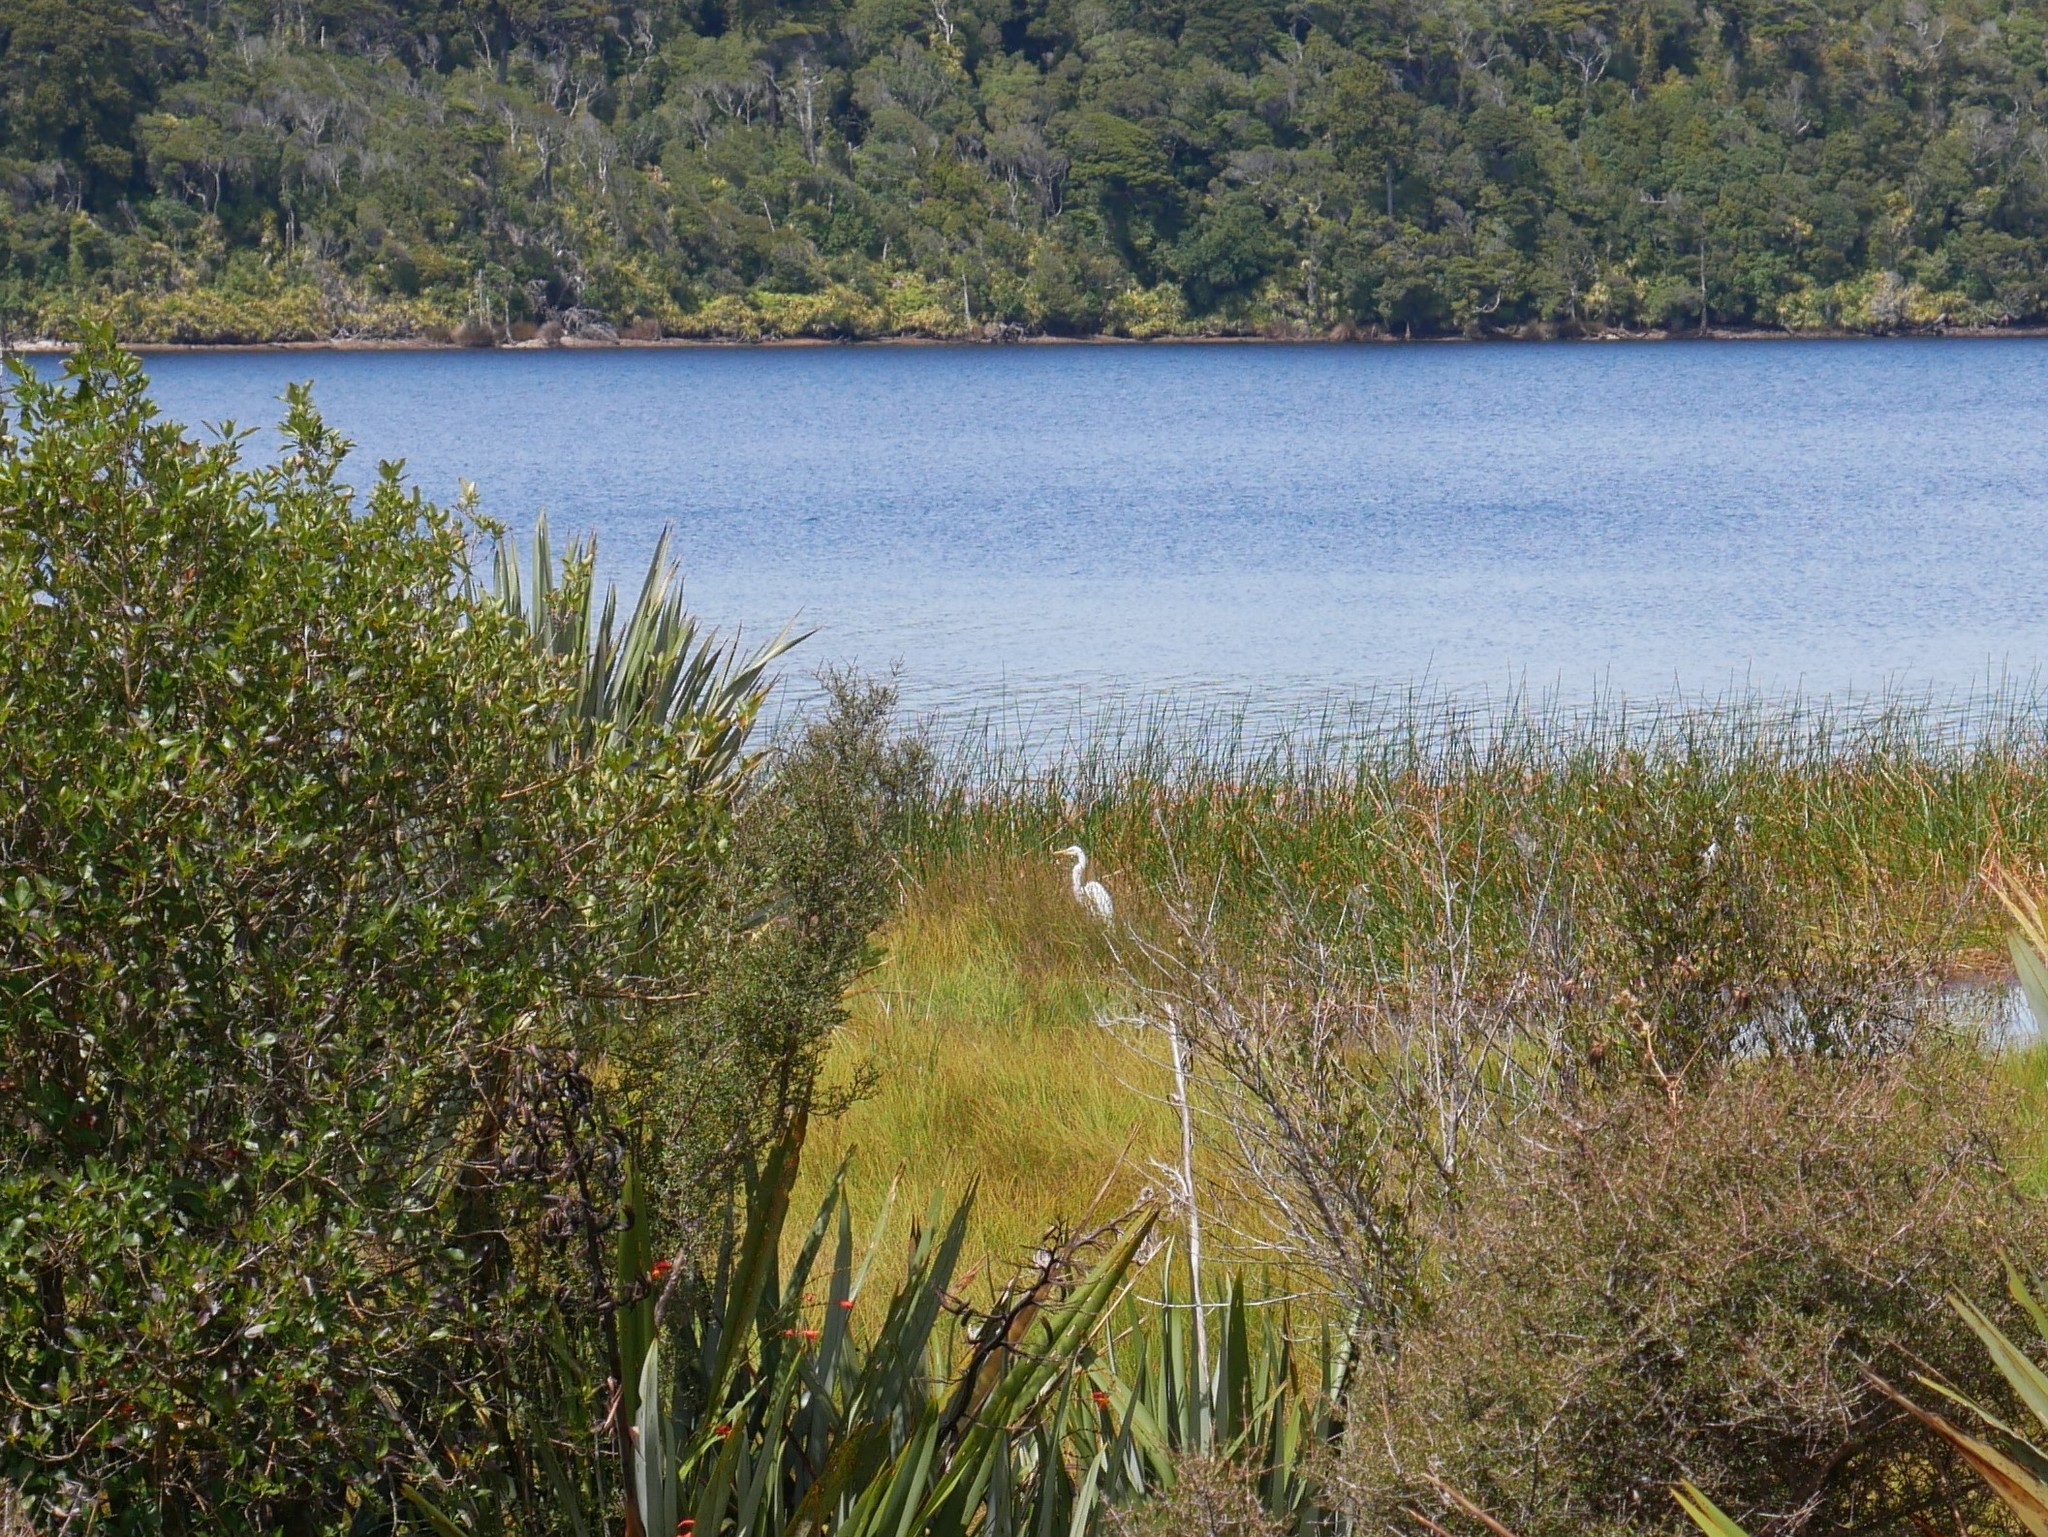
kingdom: Animalia
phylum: Chordata
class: Aves
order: Pelecaniformes
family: Ardeidae
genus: Ardea
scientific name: Ardea modesta
